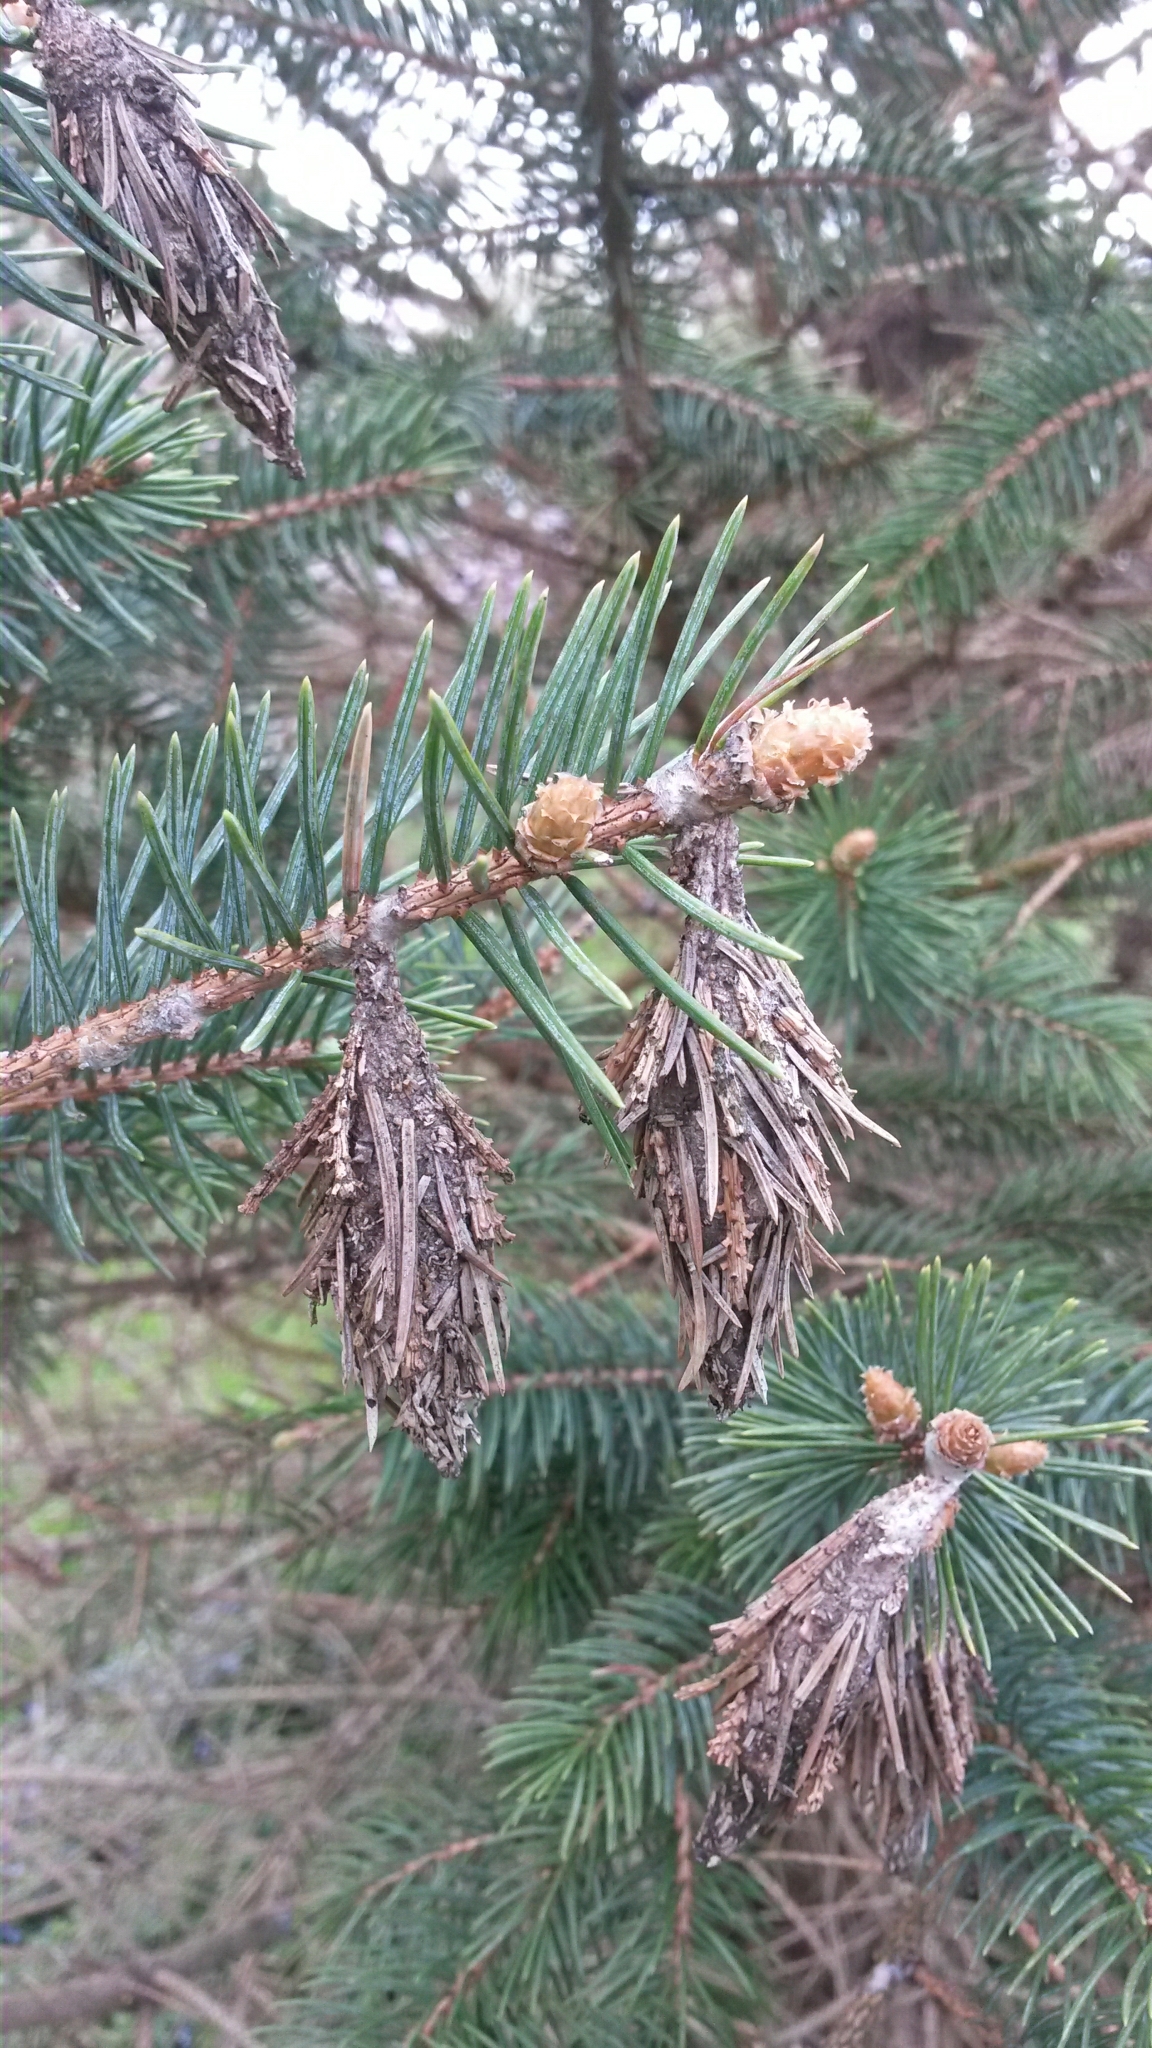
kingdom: Animalia
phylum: Arthropoda
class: Insecta
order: Lepidoptera
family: Psychidae
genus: Thyridopteryx
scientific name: Thyridopteryx ephemeraeformis
